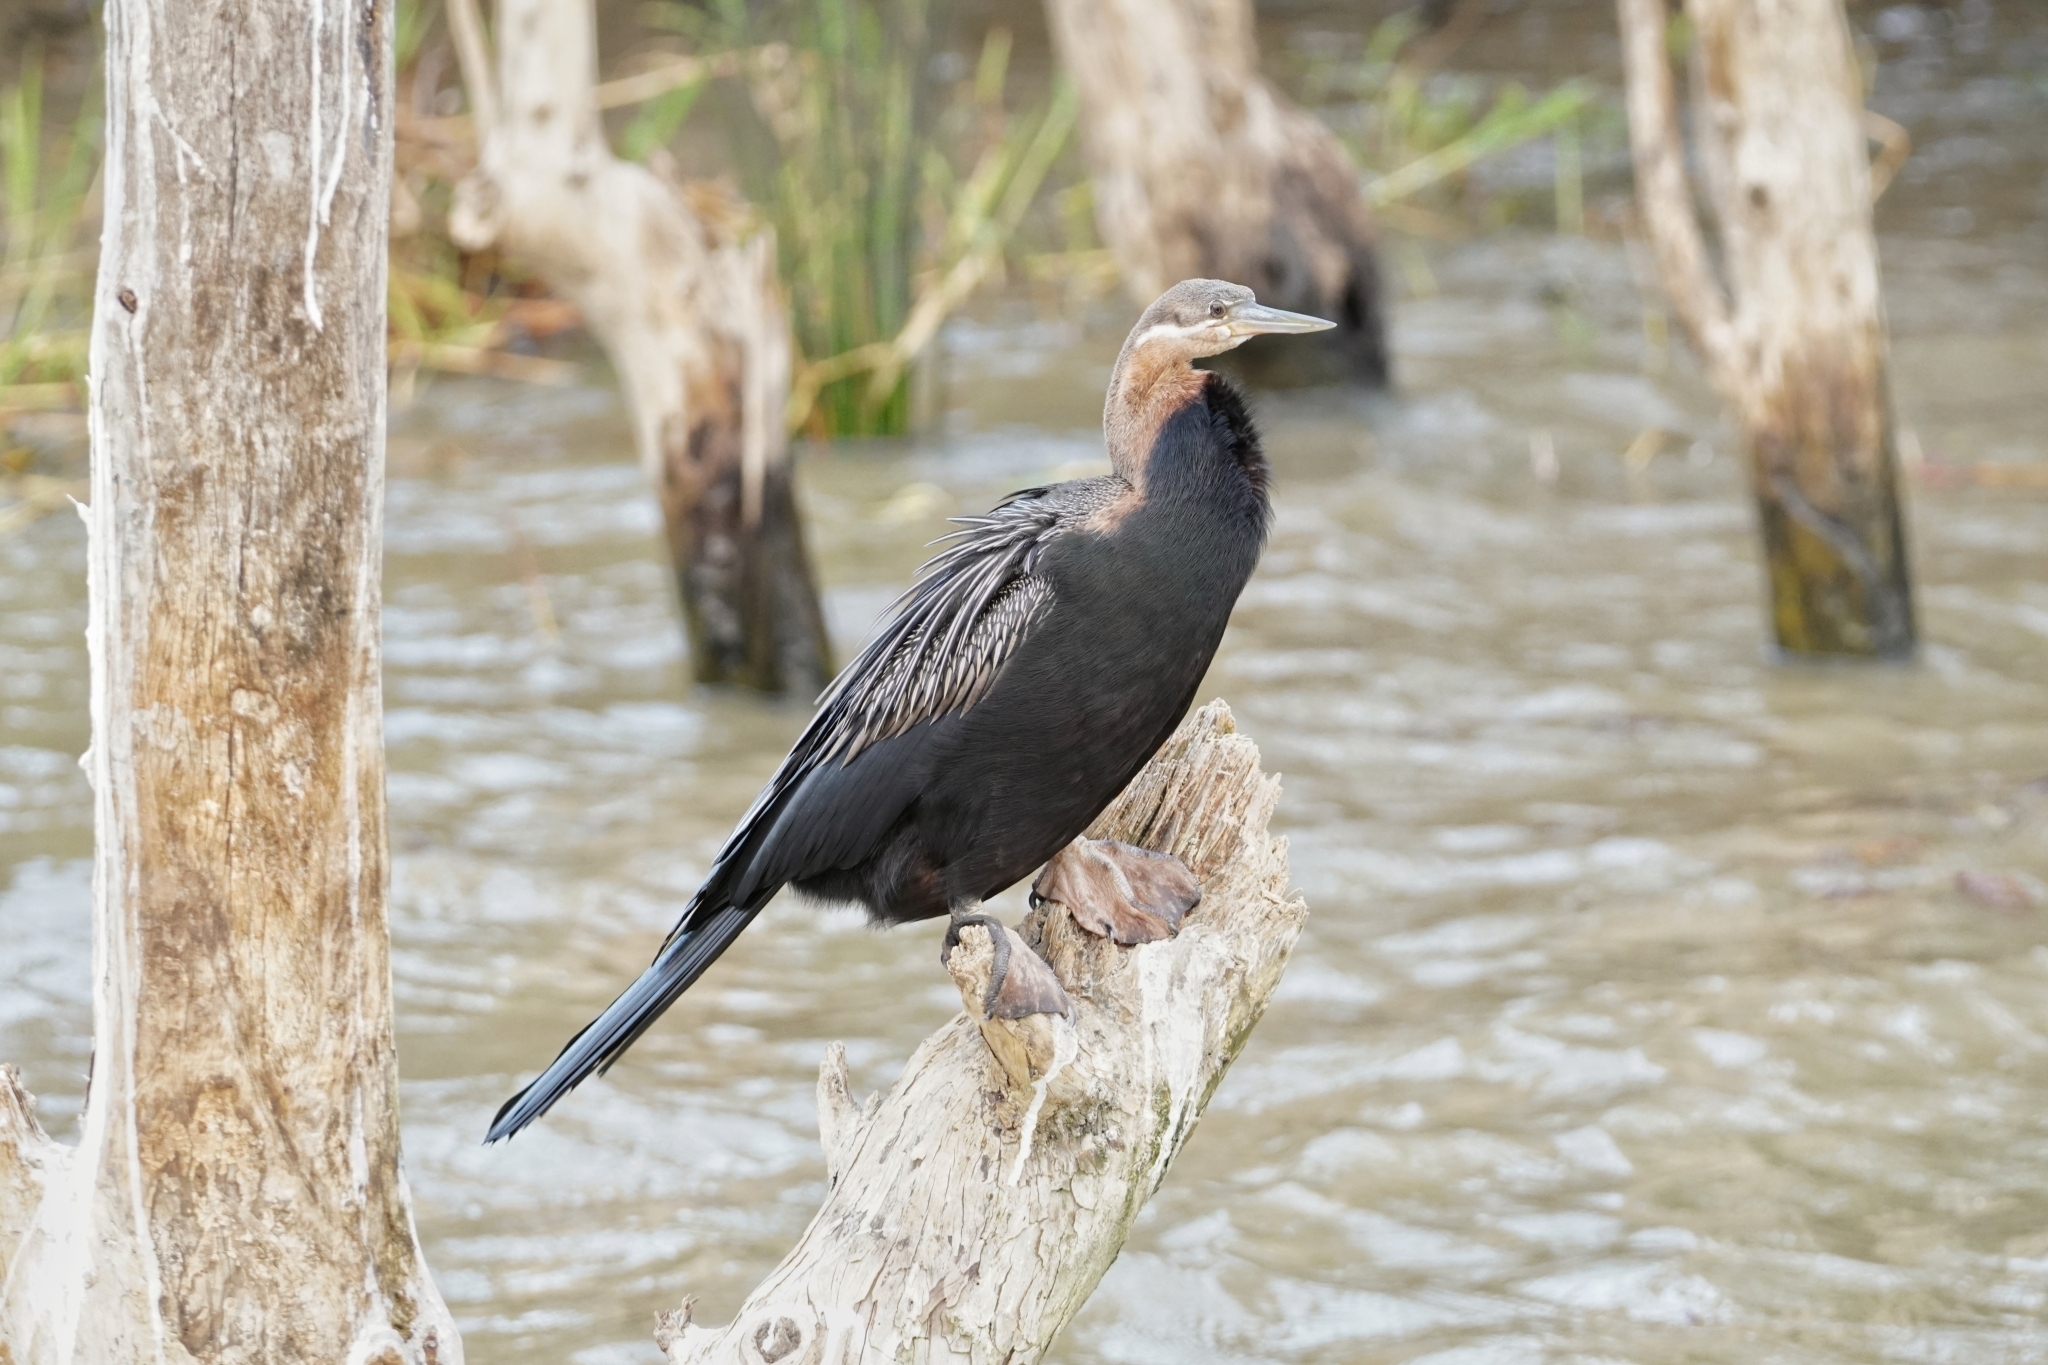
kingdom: Animalia
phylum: Chordata
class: Aves
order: Suliformes
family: Anhingidae
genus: Anhinga
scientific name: Anhinga rufa
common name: African darter
